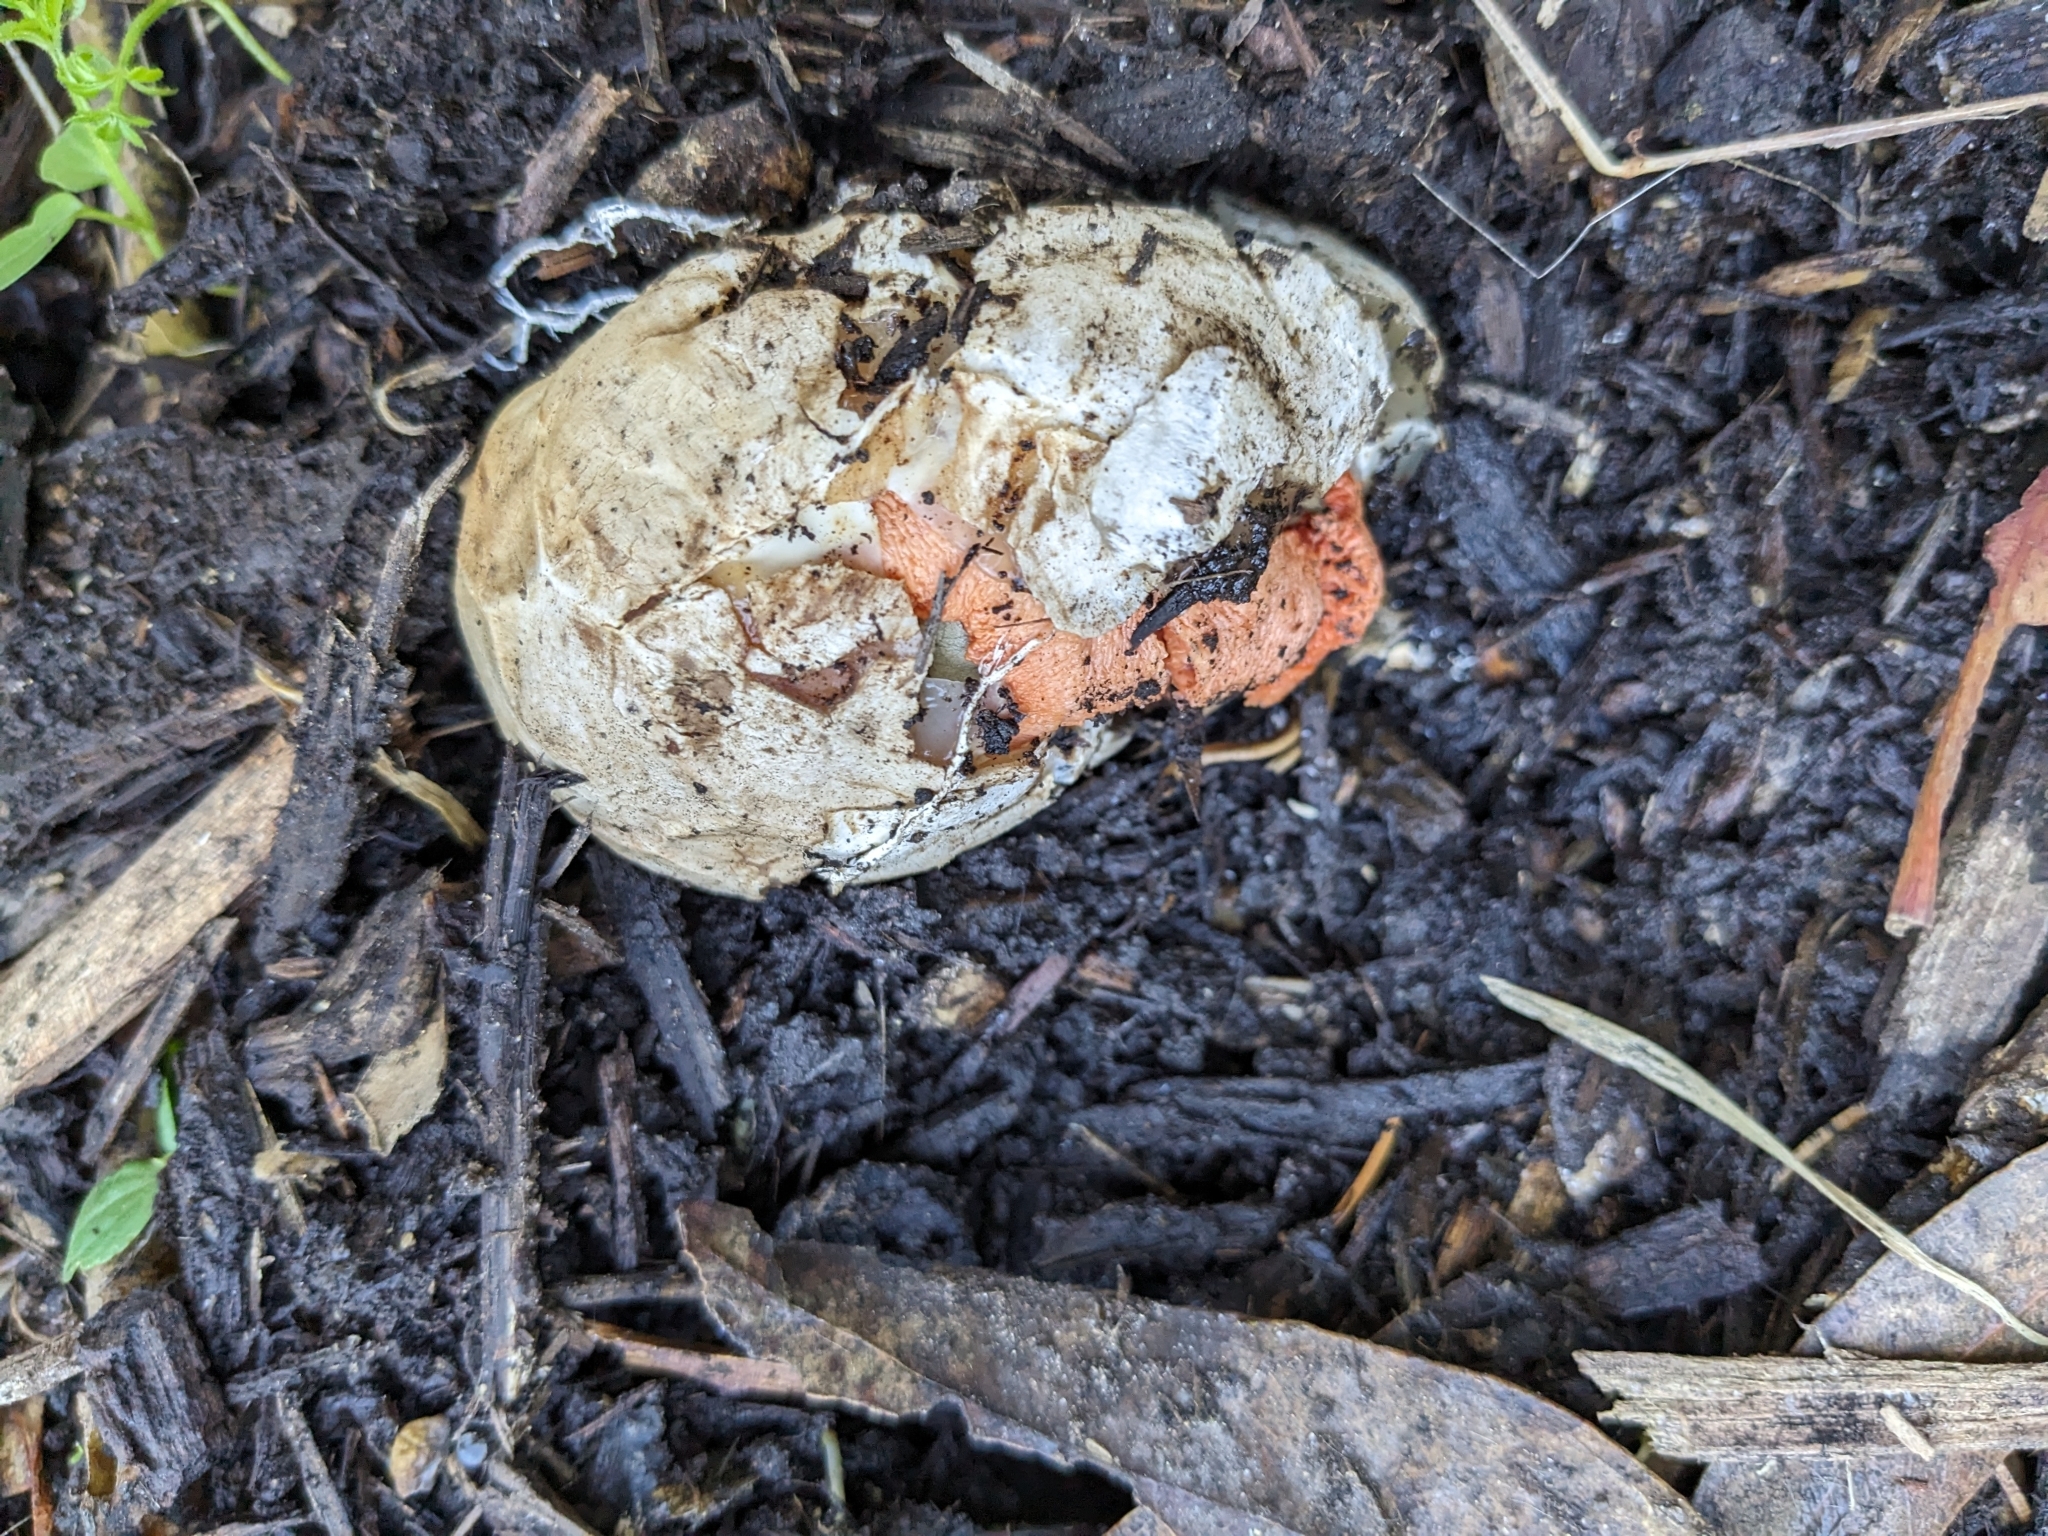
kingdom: Fungi
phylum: Basidiomycota
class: Agaricomycetes
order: Phallales
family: Phallaceae
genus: Clathrus
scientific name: Clathrus ruber
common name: Red cage
